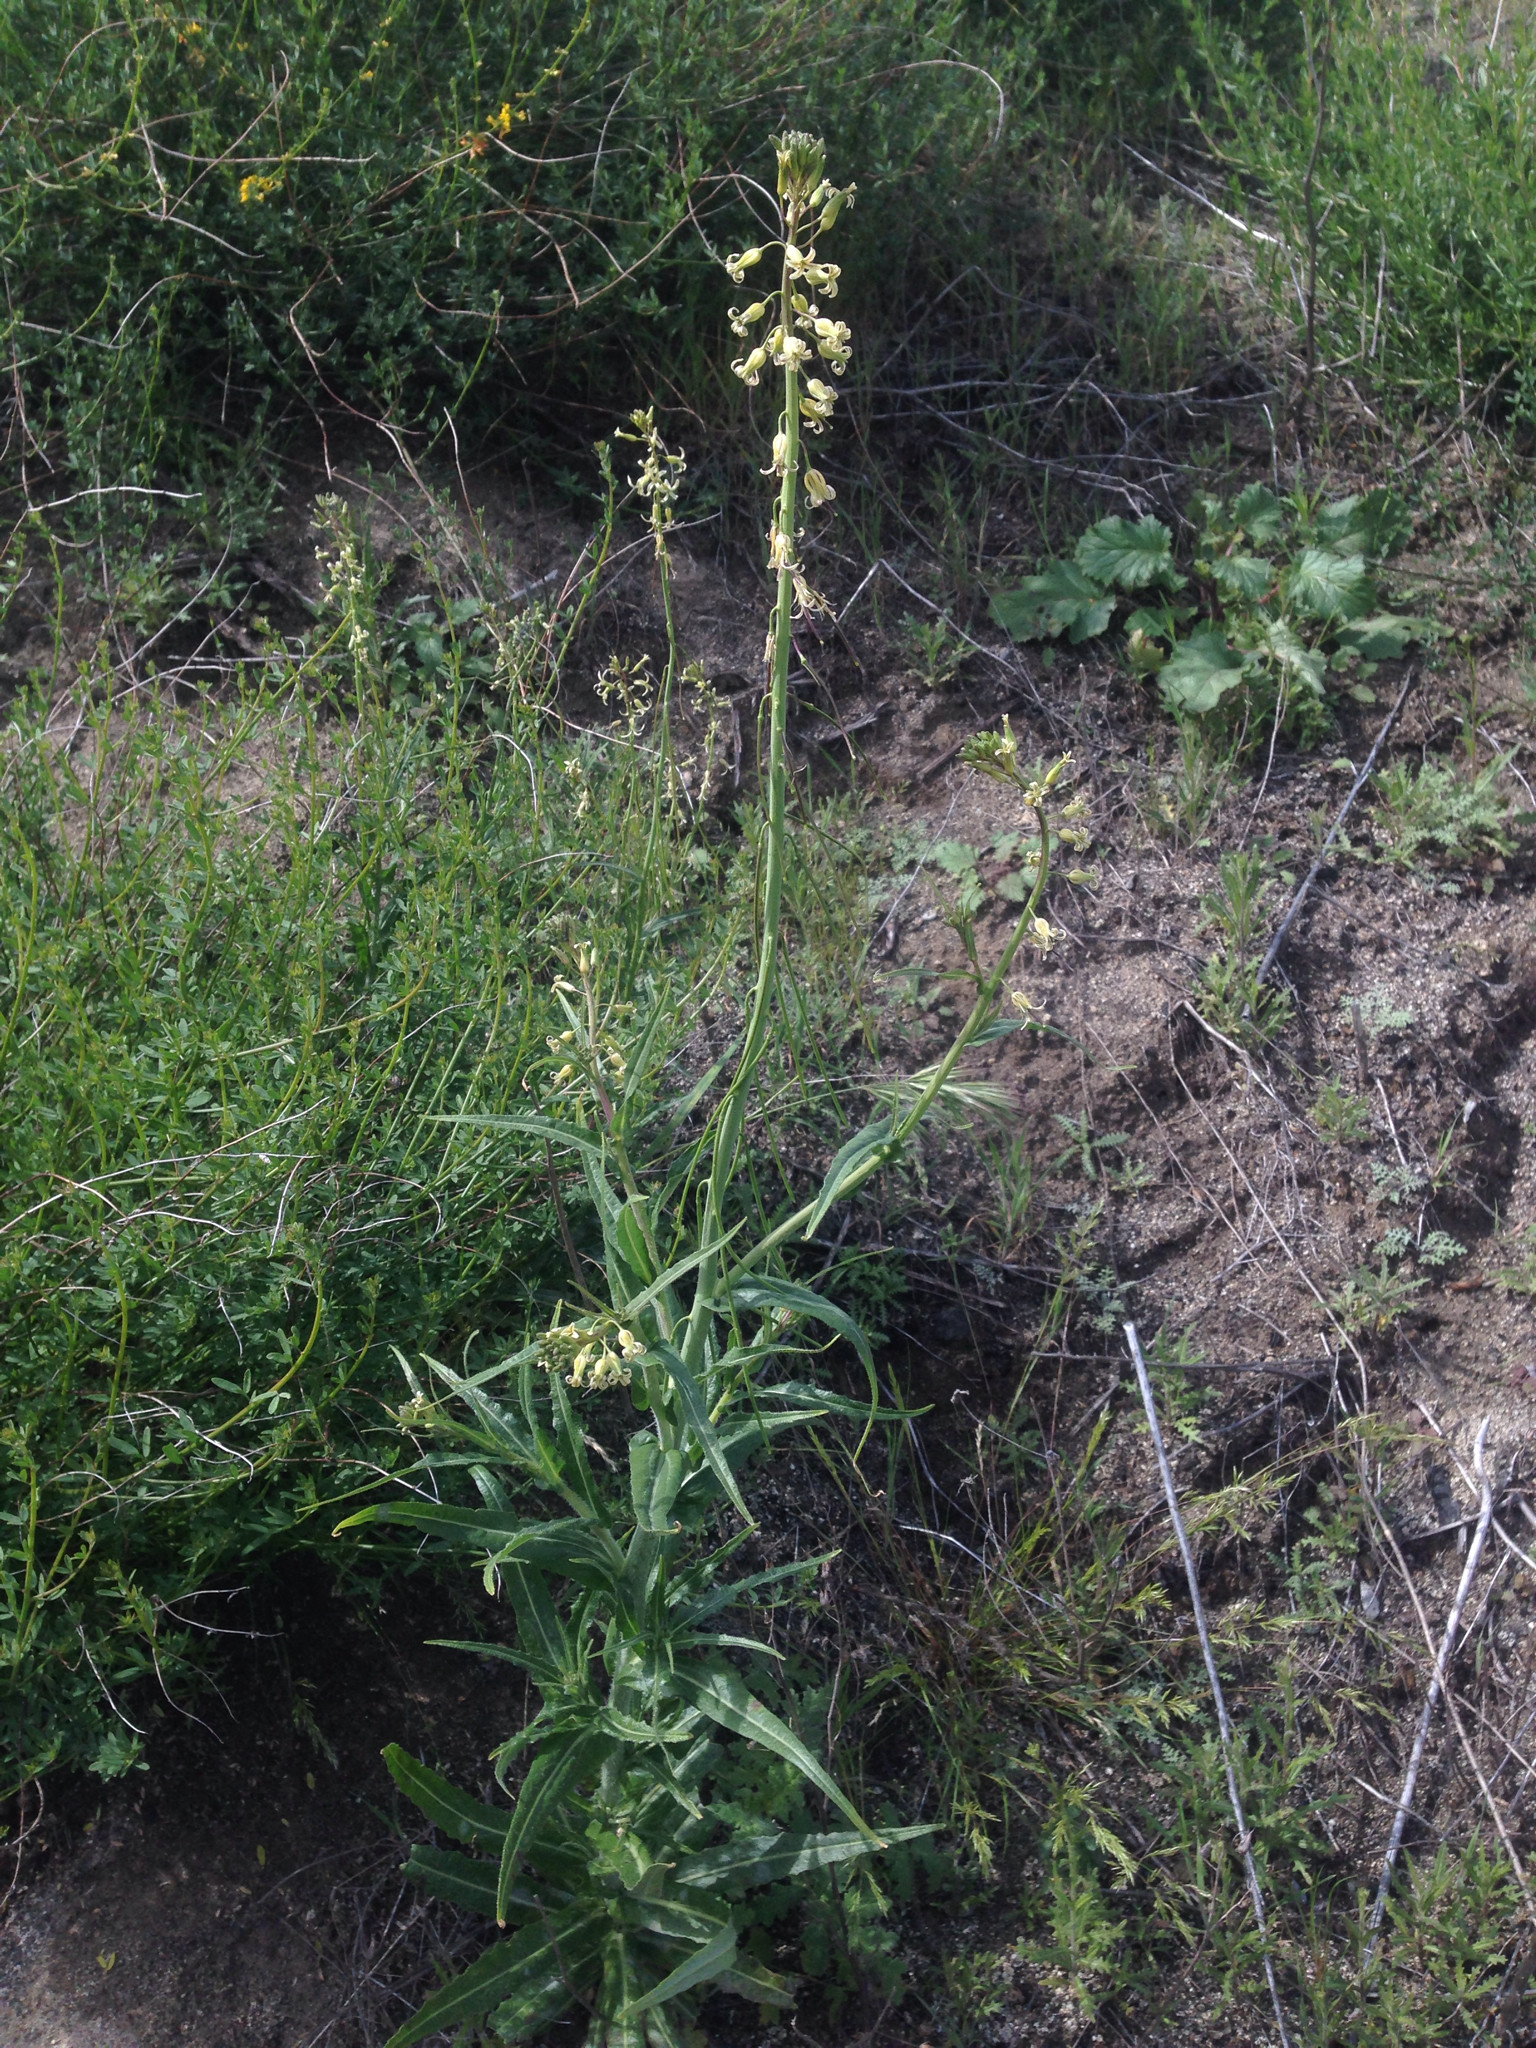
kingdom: Plantae
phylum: Tracheophyta
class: Magnoliopsida
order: Brassicales
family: Brassicaceae
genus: Streptanthus
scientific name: Streptanthus heterophyllus
